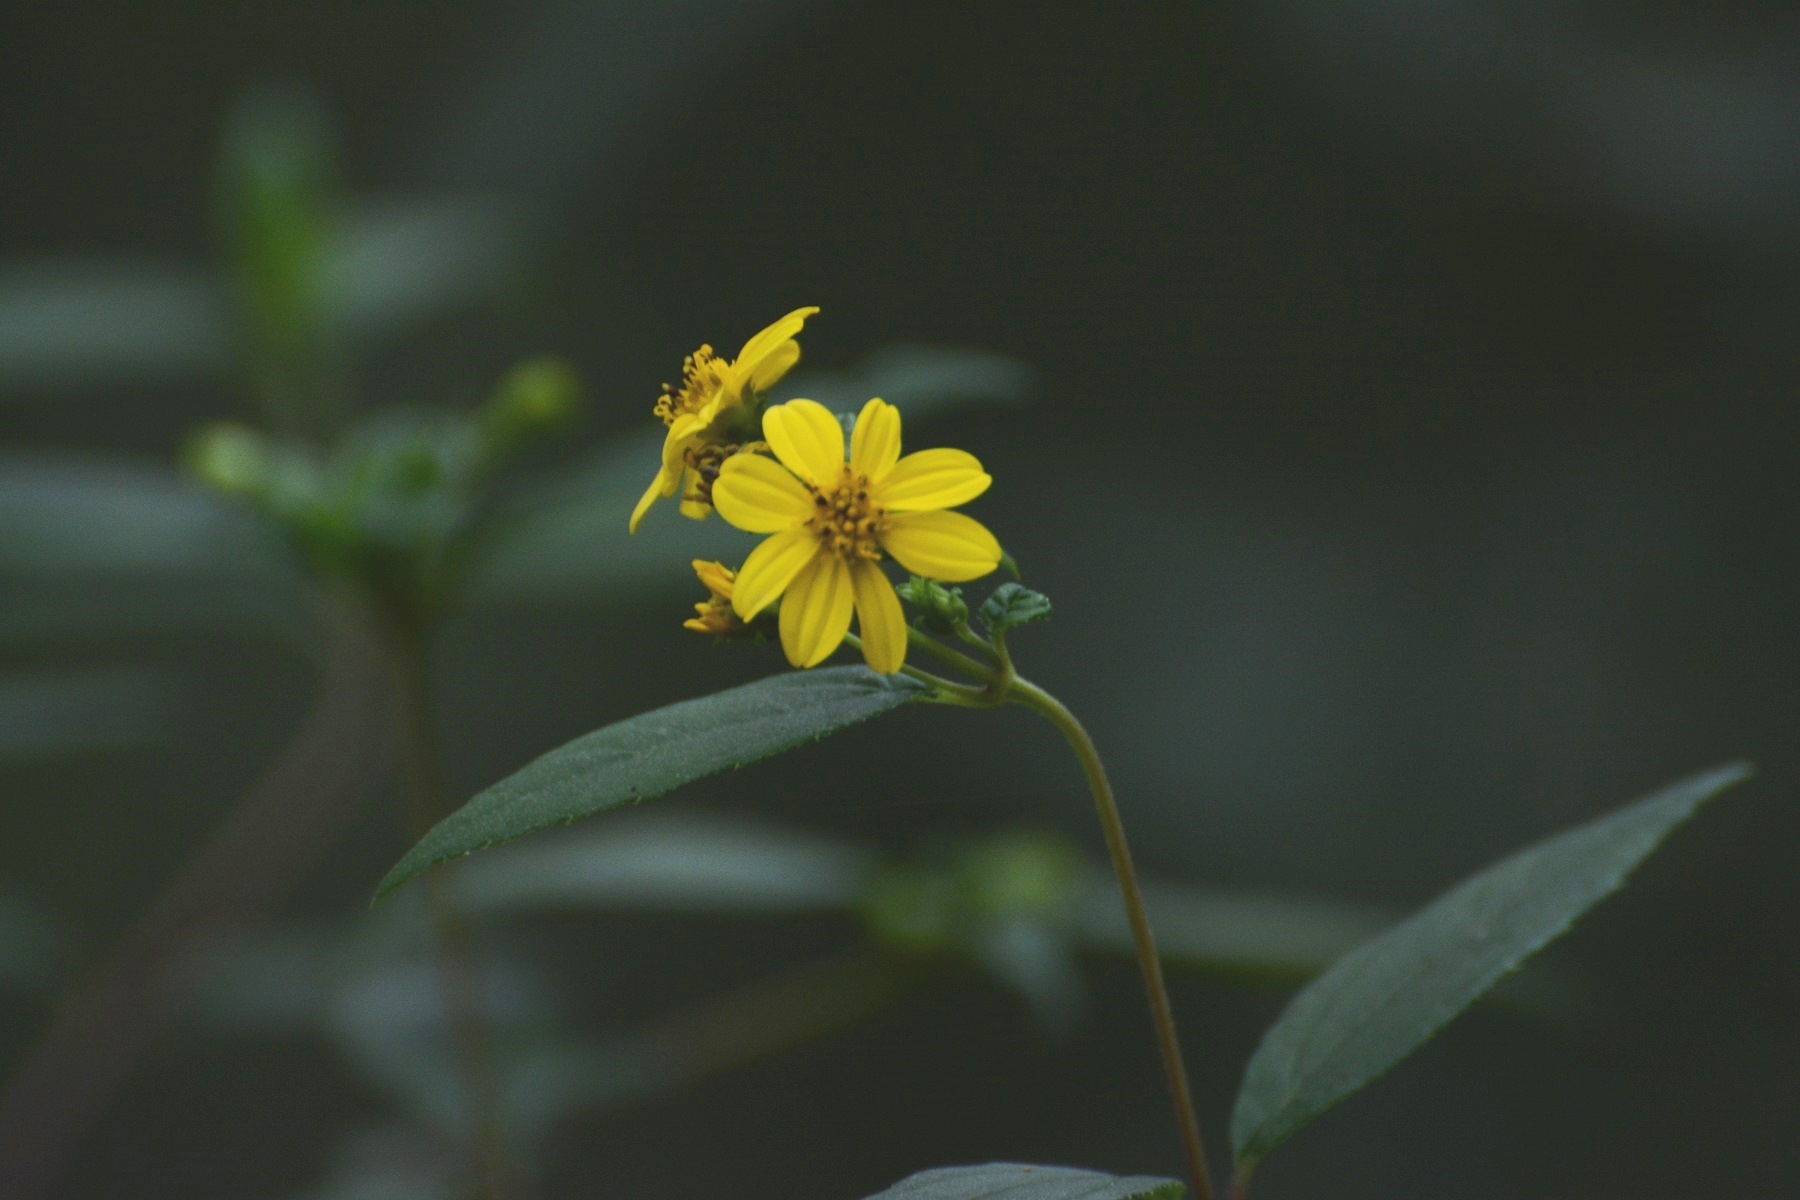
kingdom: Plantae
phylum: Tracheophyta
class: Magnoliopsida
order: Asterales
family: Asteraceae
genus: Perymenium
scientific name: Perymenium gymnolomoides
